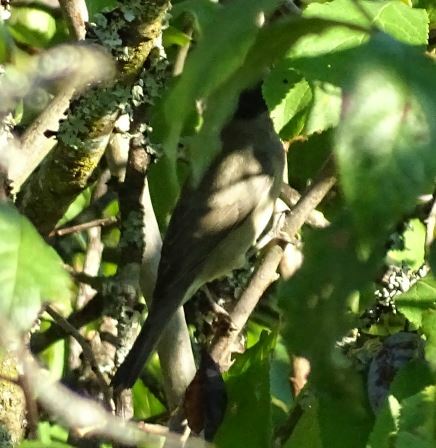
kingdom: Animalia
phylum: Chordata
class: Aves
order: Passeriformes
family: Sylviidae
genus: Sylvia
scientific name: Sylvia atricapilla
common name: Eurasian blackcap
